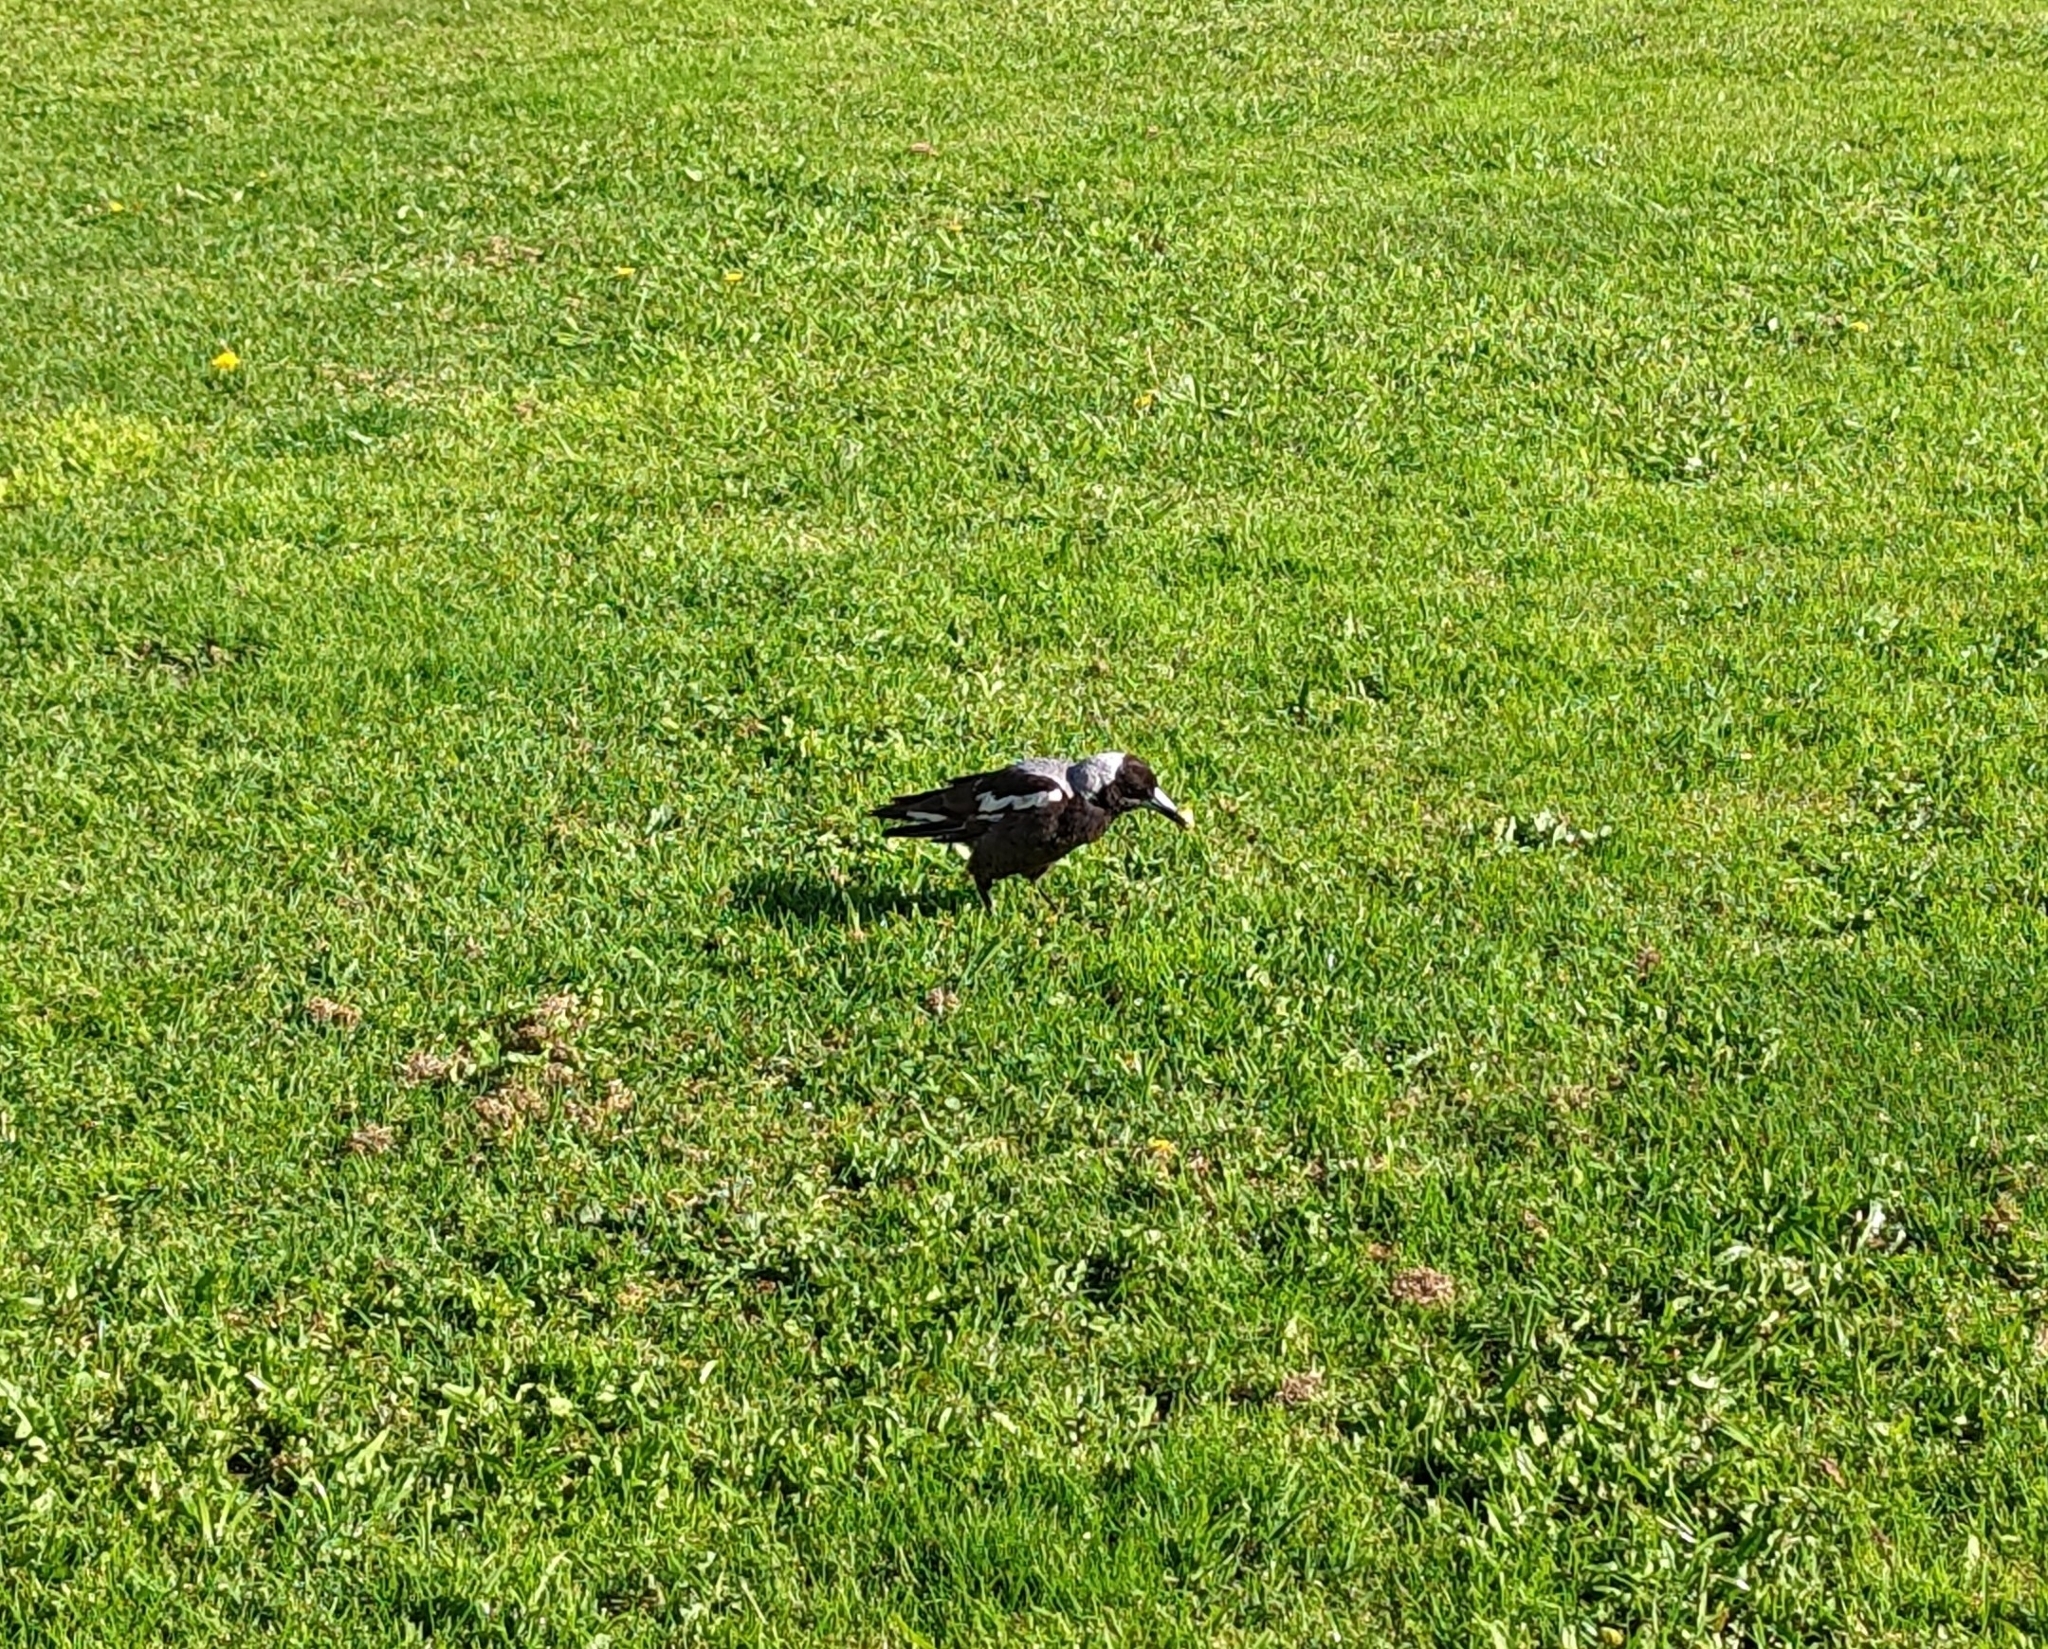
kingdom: Animalia
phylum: Chordata
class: Aves
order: Passeriformes
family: Cracticidae
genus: Gymnorhina
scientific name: Gymnorhina tibicen
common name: Australian magpie
